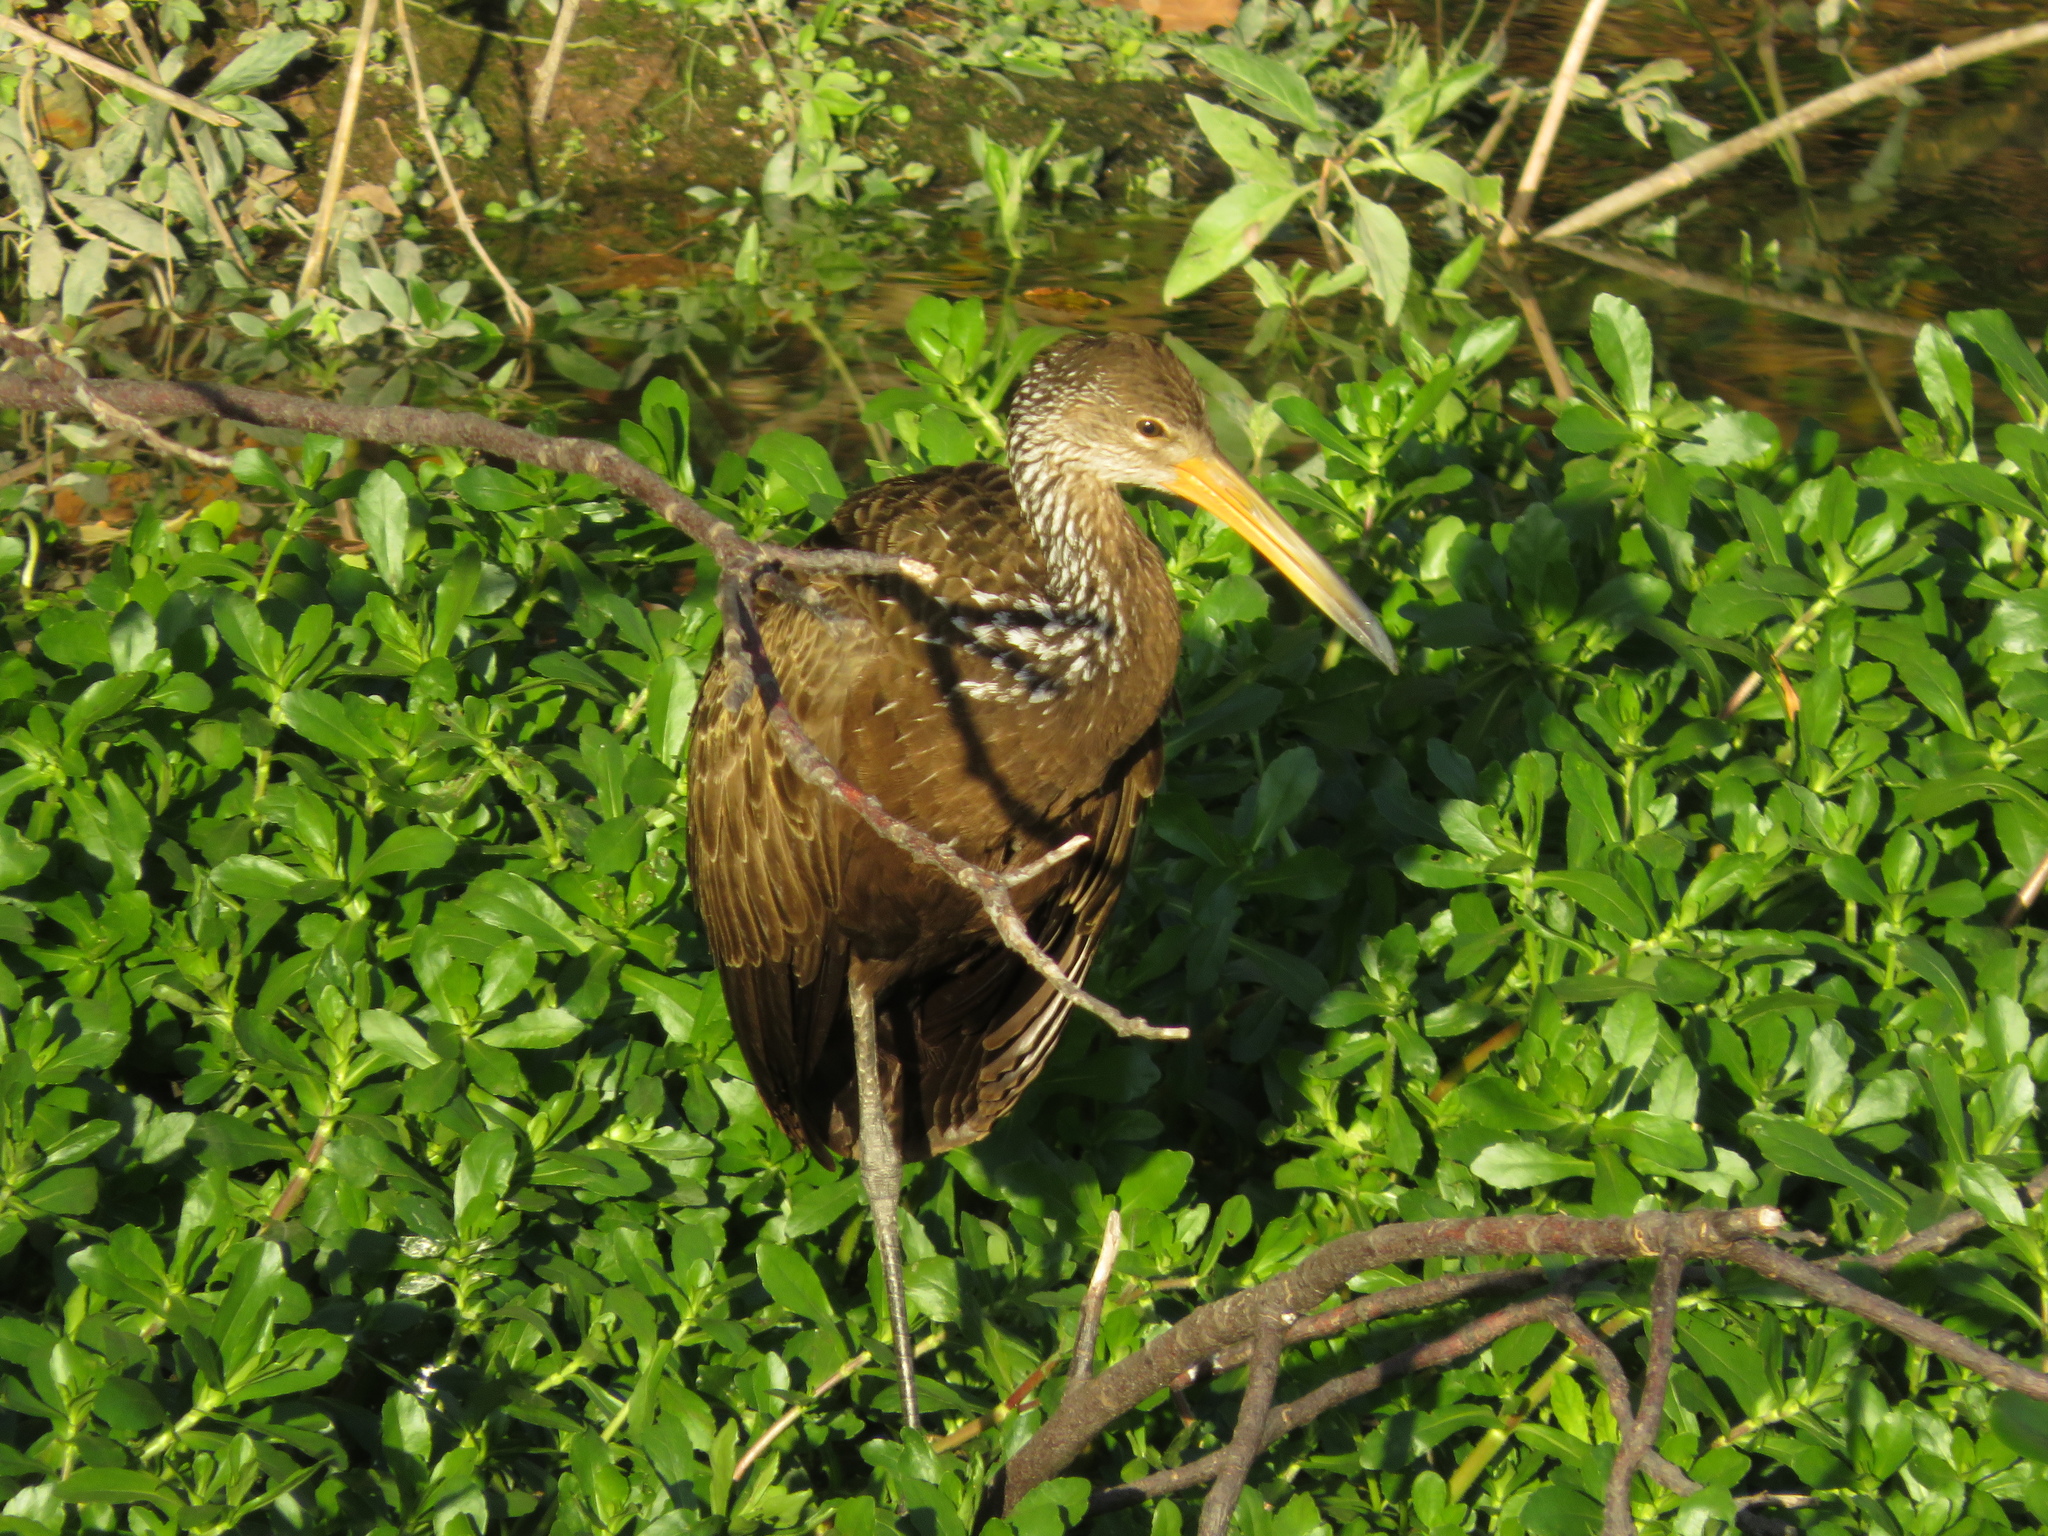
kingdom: Animalia
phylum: Chordata
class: Aves
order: Gruiformes
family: Aramidae
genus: Aramus
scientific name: Aramus guarauna
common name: Limpkin
